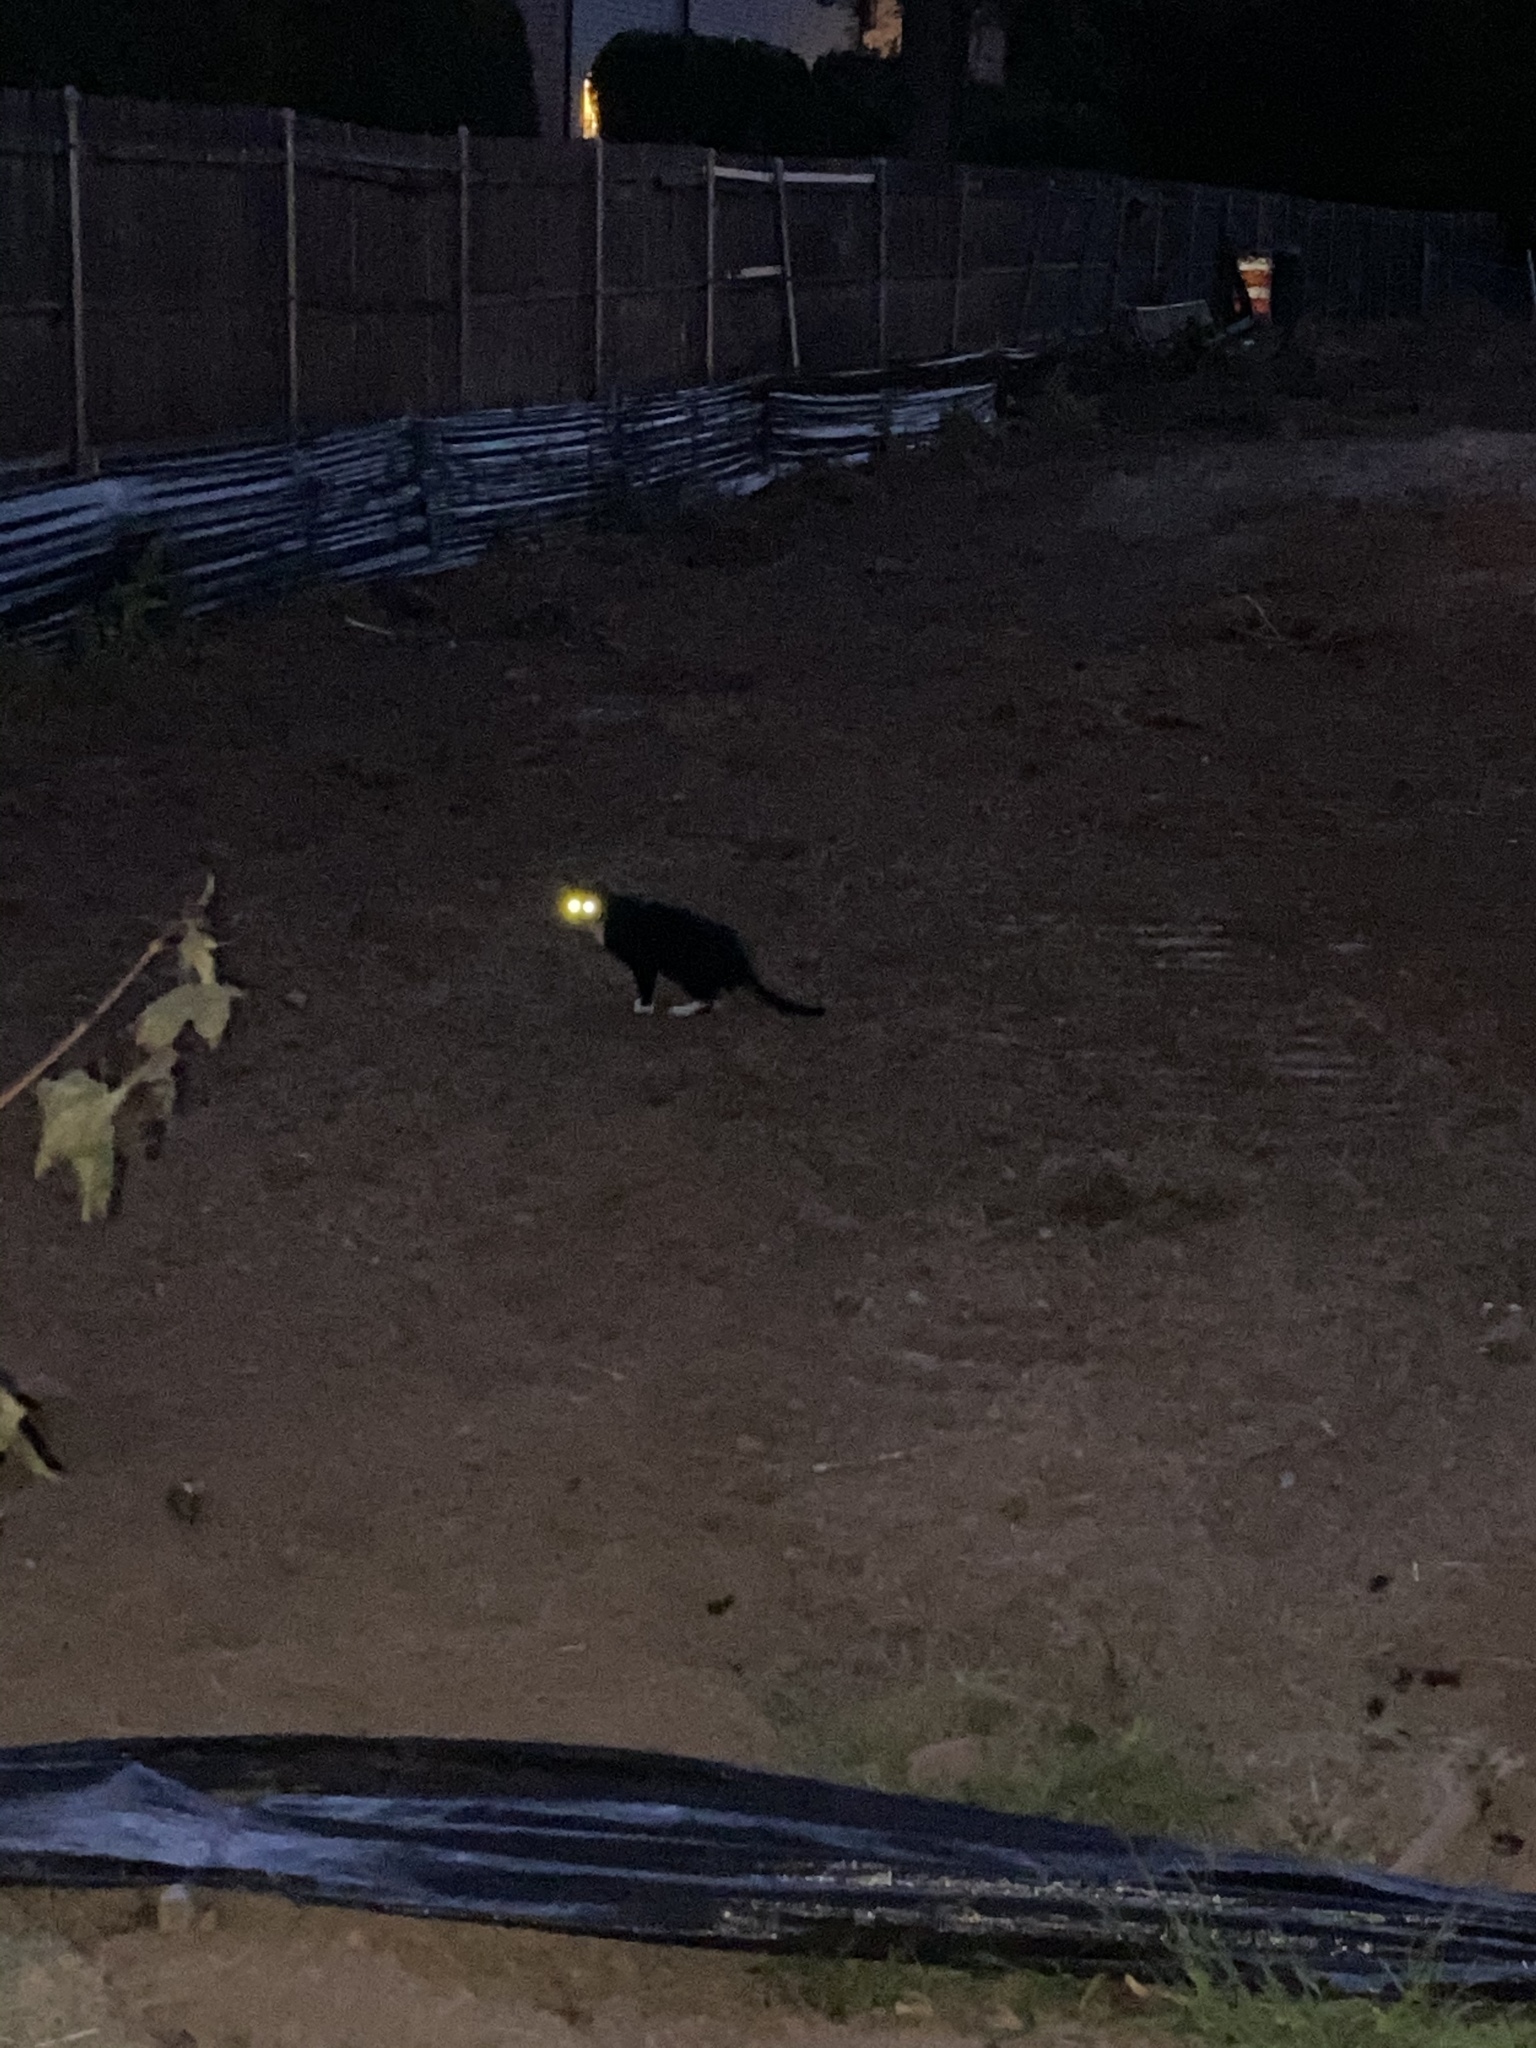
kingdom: Animalia
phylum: Chordata
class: Mammalia
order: Carnivora
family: Felidae
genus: Felis
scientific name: Felis catus
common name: Domestic cat
